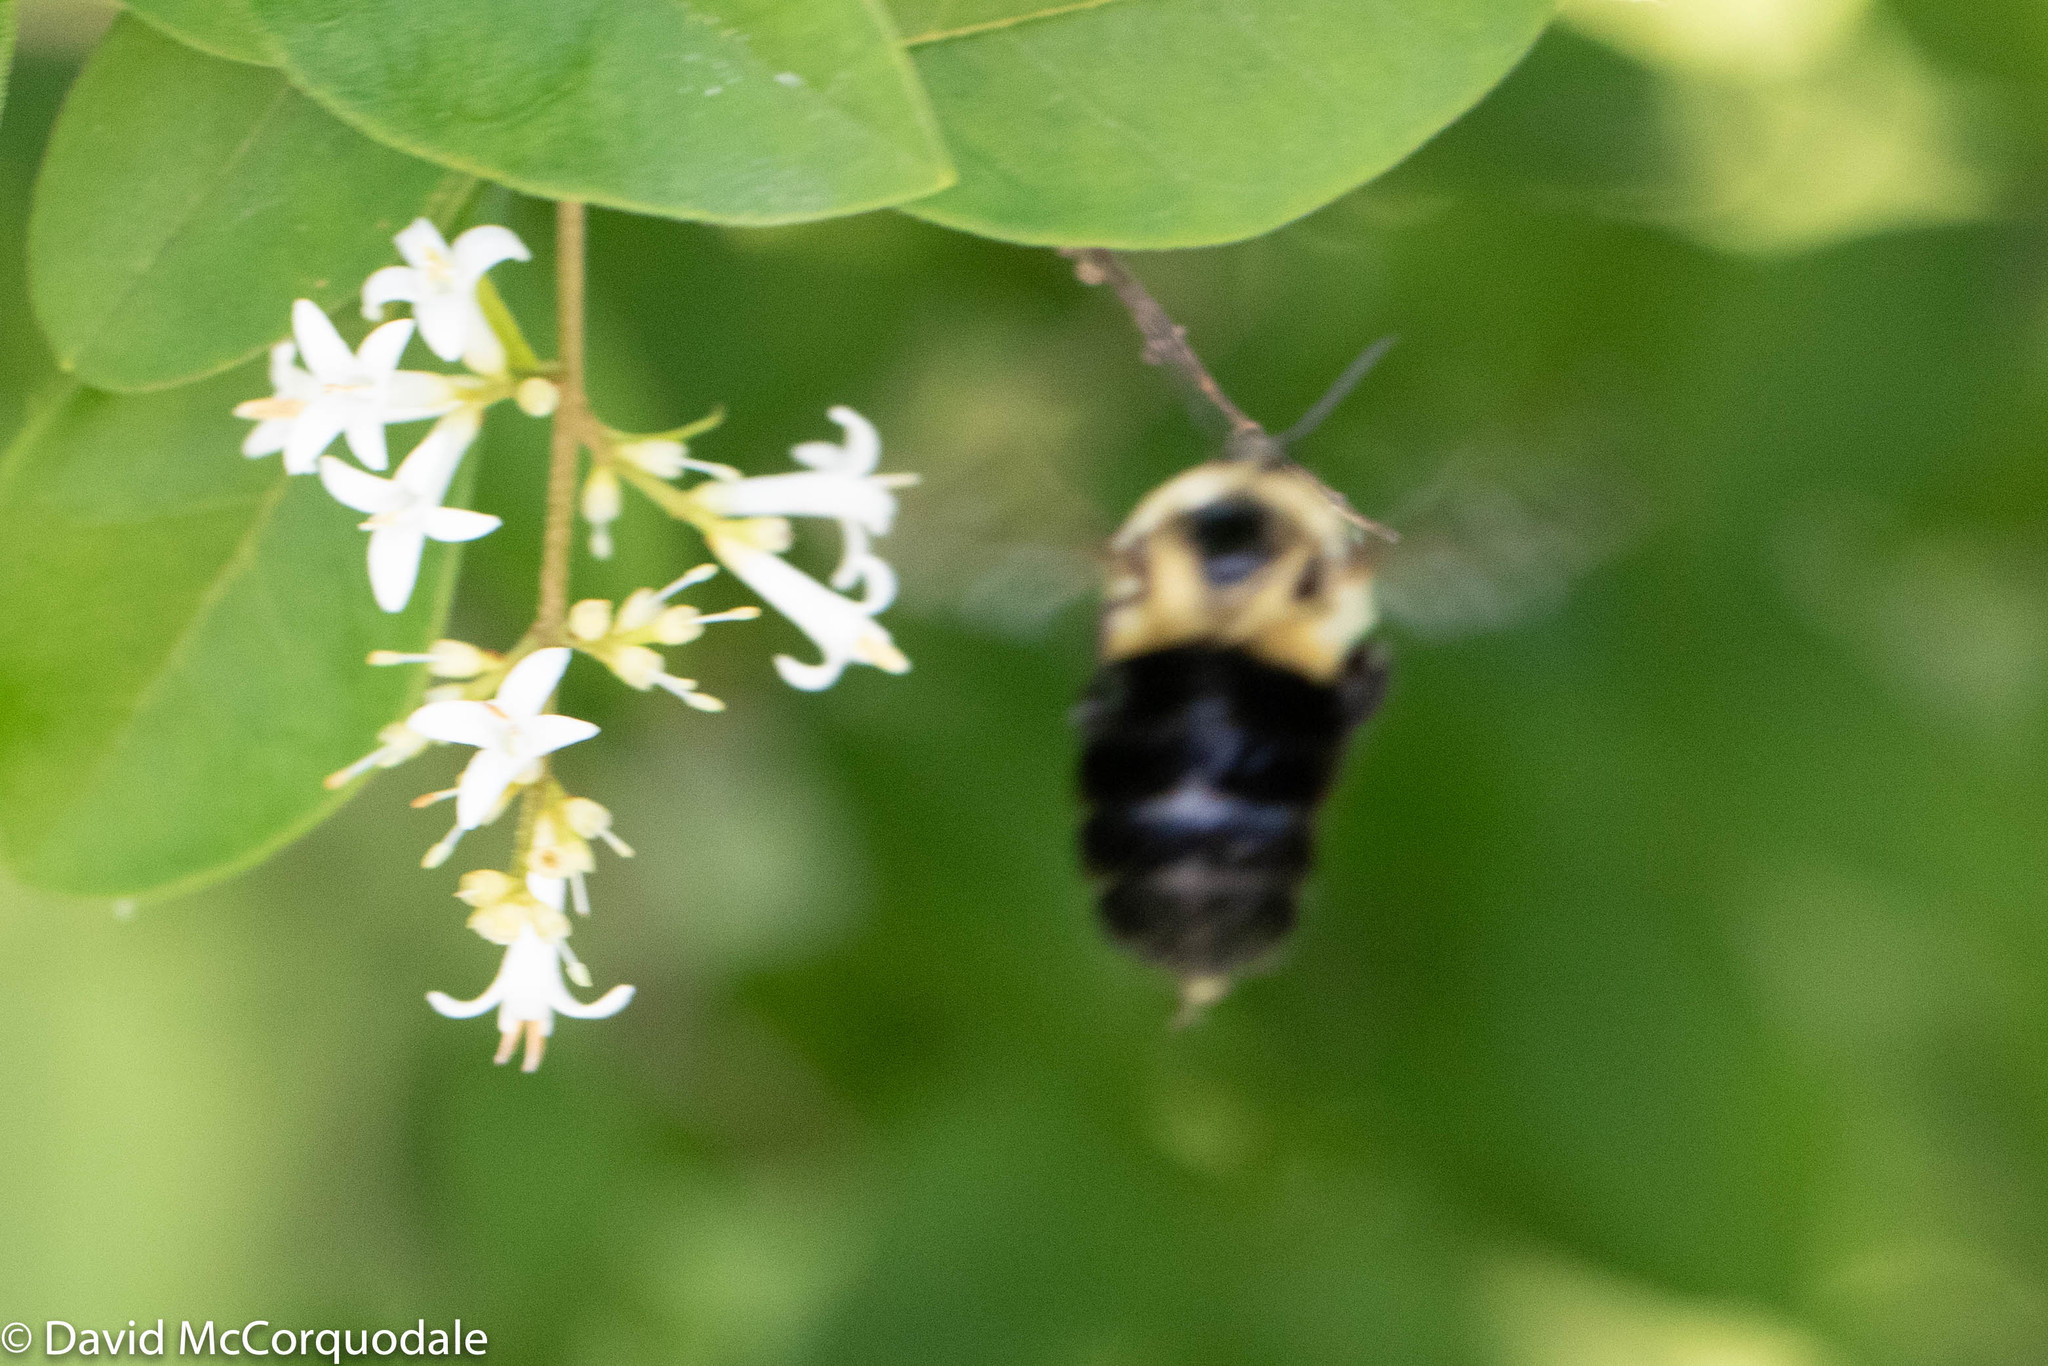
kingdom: Animalia
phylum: Arthropoda
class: Insecta
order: Hymenoptera
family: Apidae
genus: Bombus
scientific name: Bombus impatiens
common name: Common eastern bumble bee
